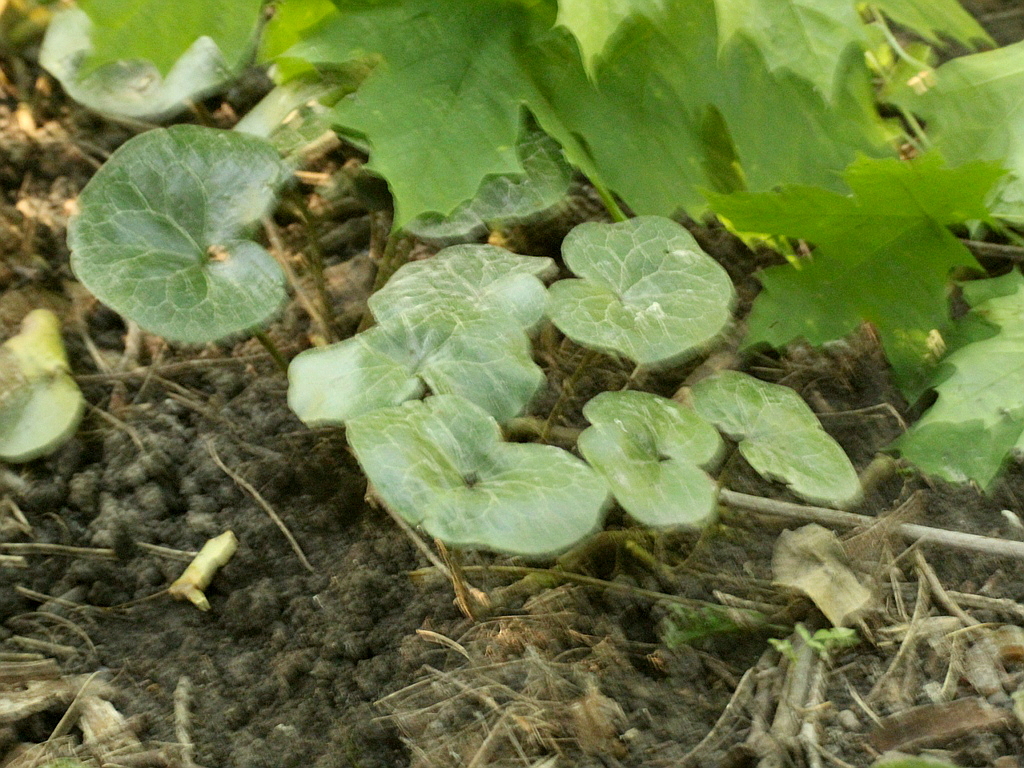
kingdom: Plantae
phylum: Tracheophyta
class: Magnoliopsida
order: Piperales
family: Aristolochiaceae
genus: Asarum
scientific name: Asarum europaeum
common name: Asarabacca
